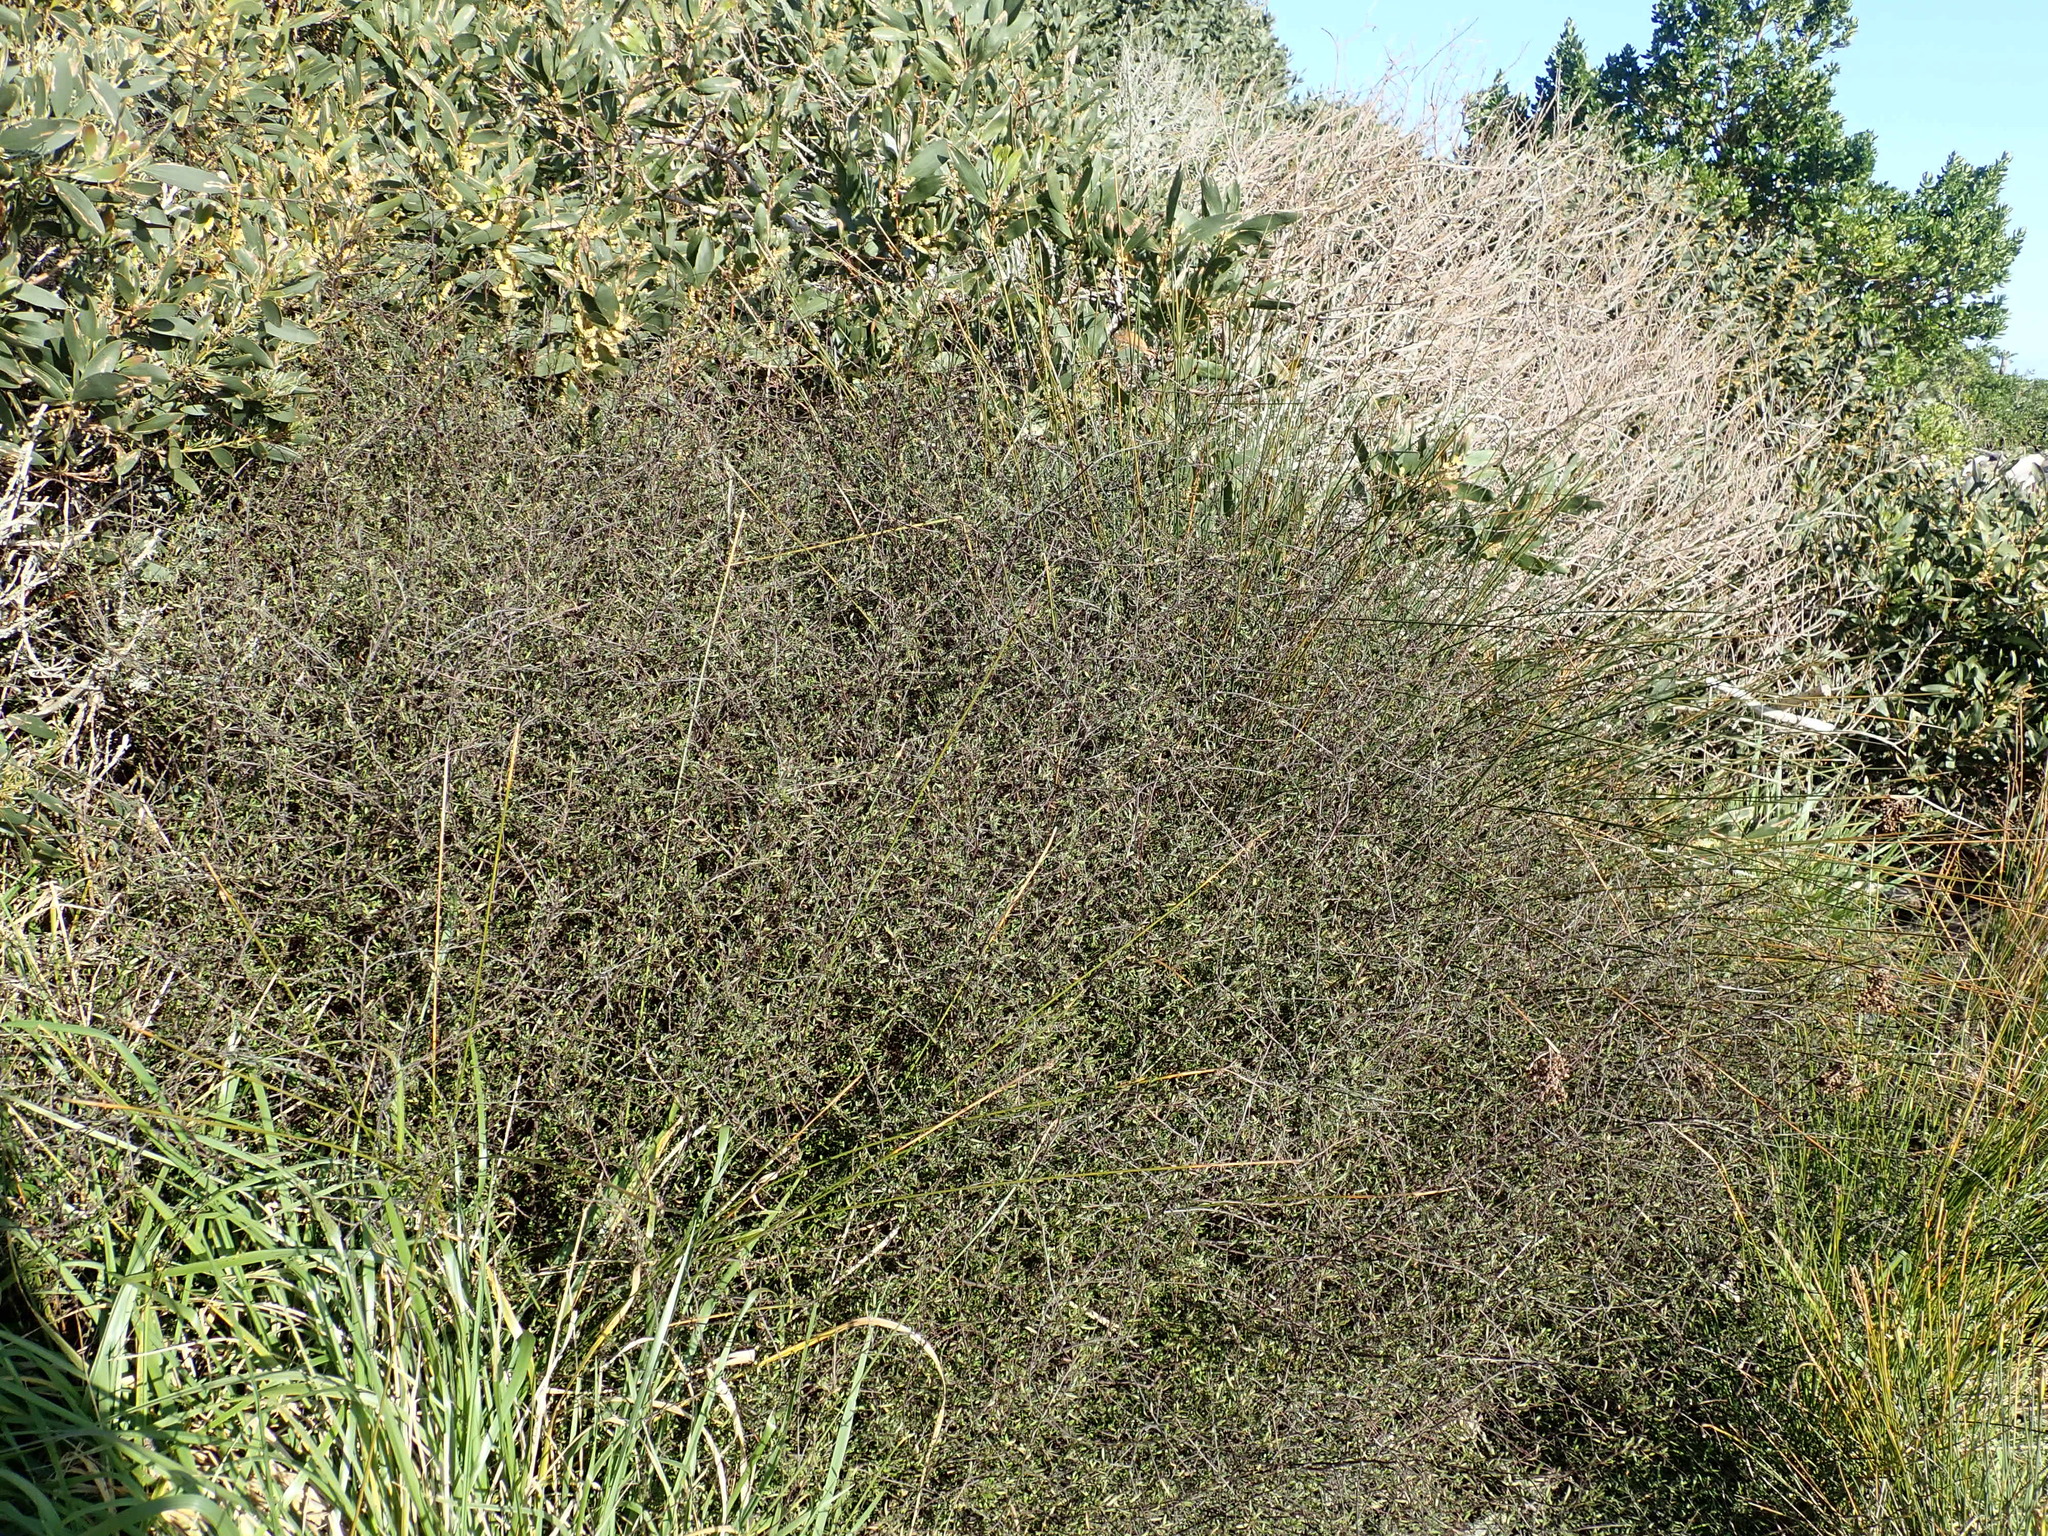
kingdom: Plantae
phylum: Tracheophyta
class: Magnoliopsida
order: Malvales
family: Malvaceae
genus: Plagianthus
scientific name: Plagianthus divaricatus
